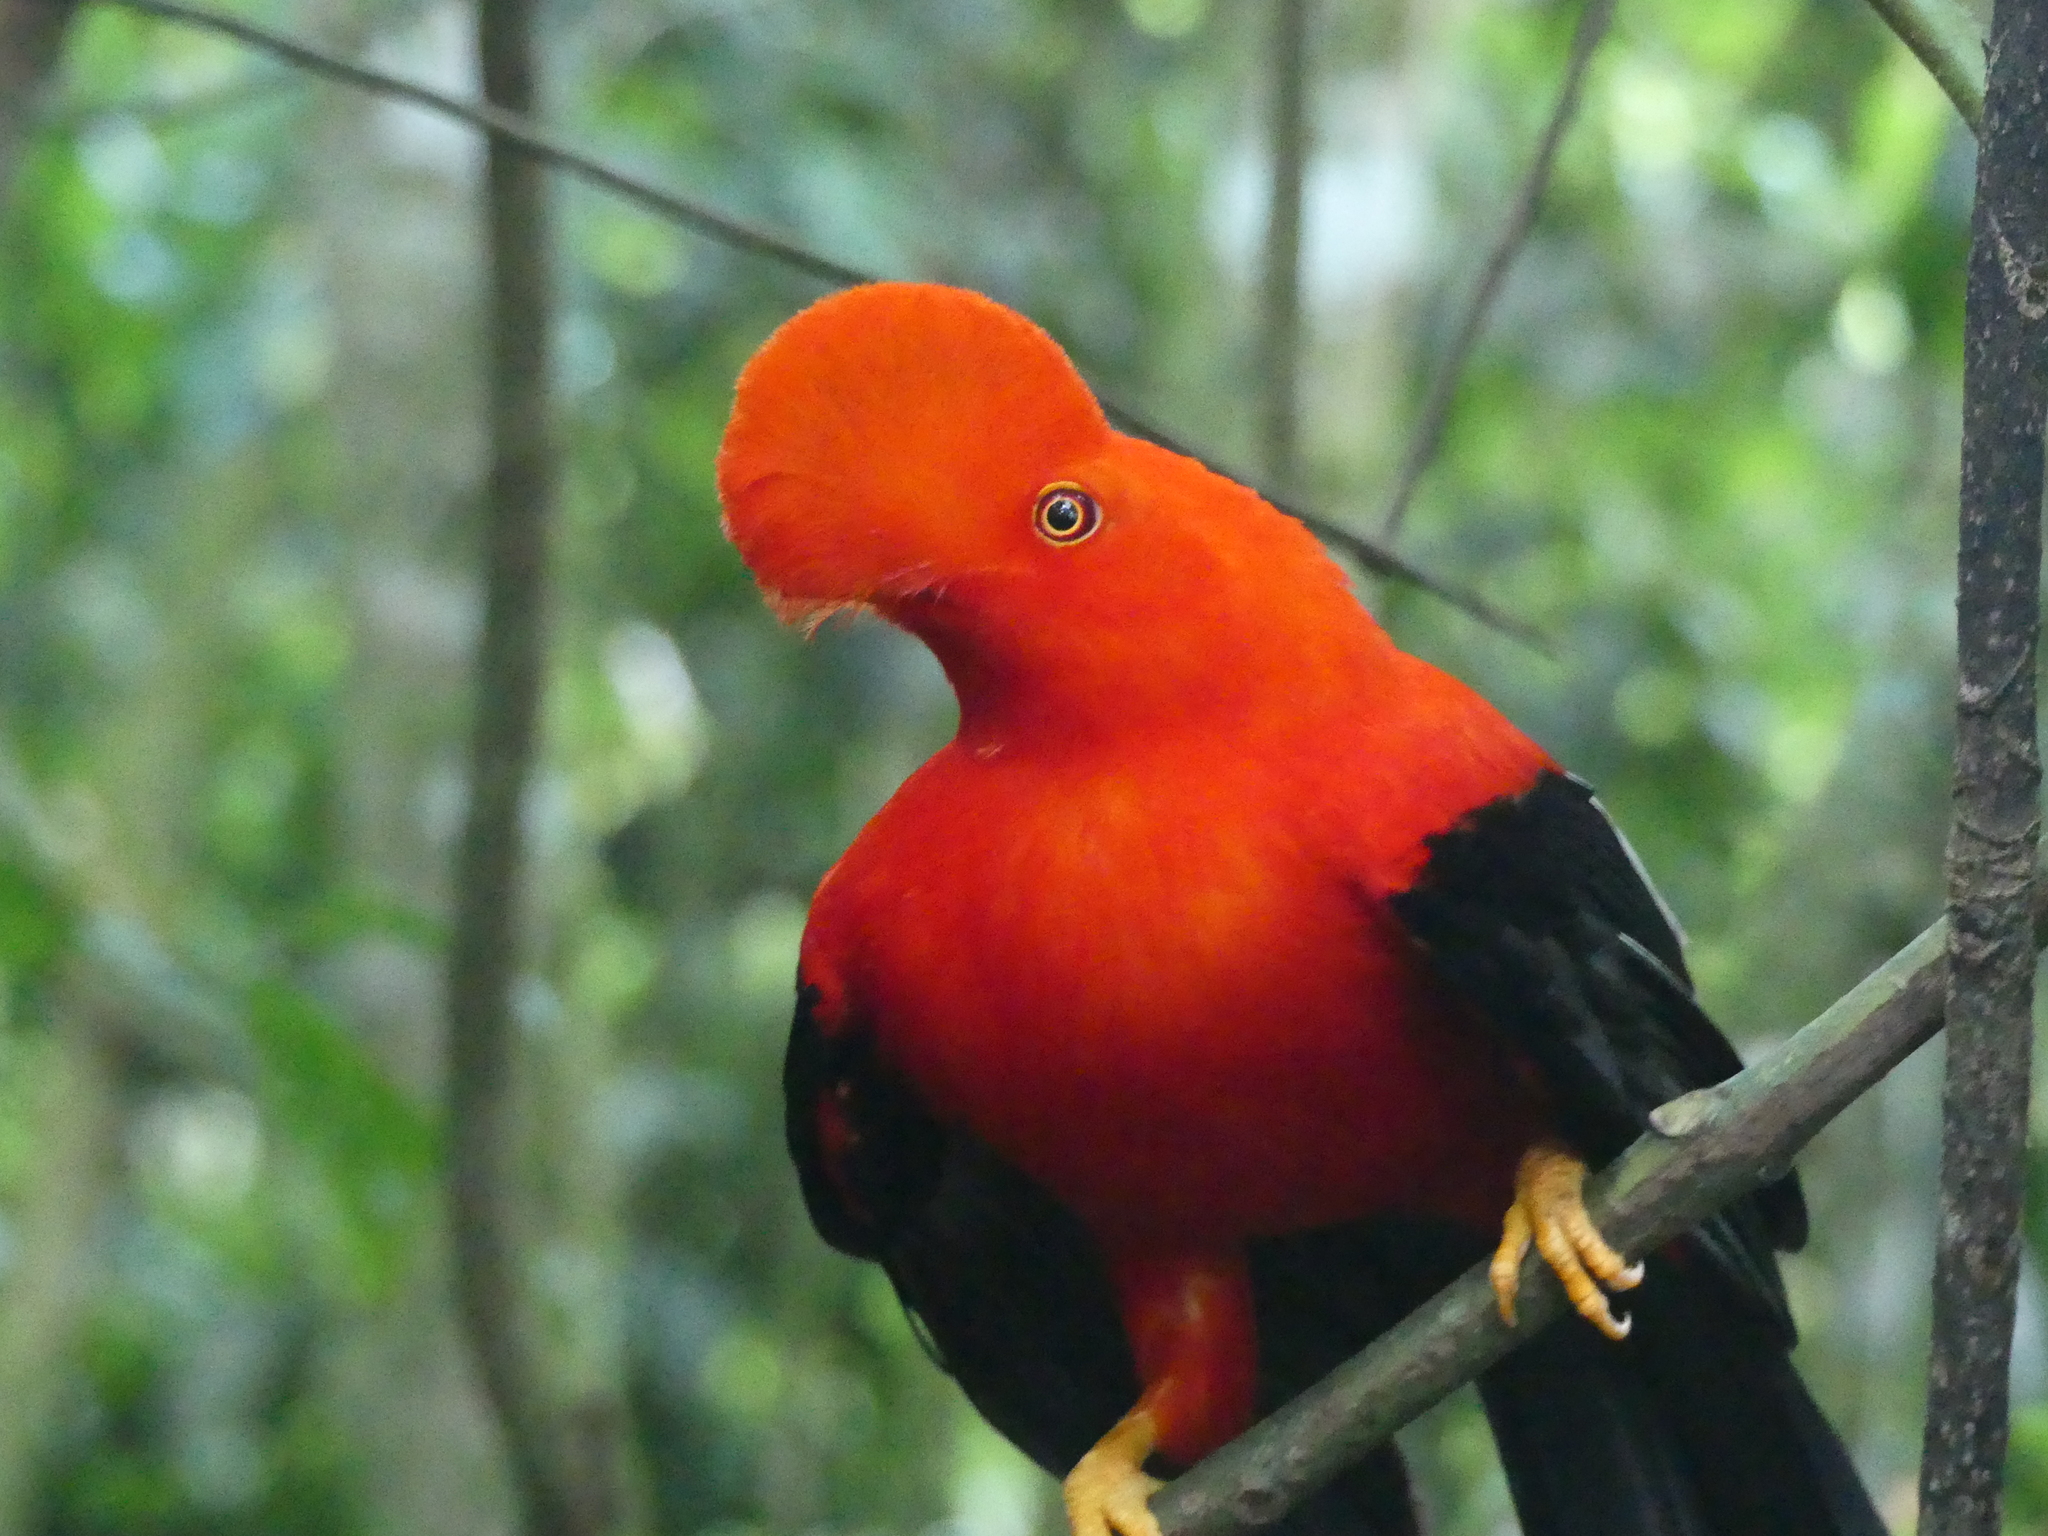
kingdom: Animalia
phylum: Chordata
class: Aves
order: Passeriformes
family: Cotingidae
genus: Rupicola
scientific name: Rupicola peruvianus
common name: Andean cock-of-the-rock
